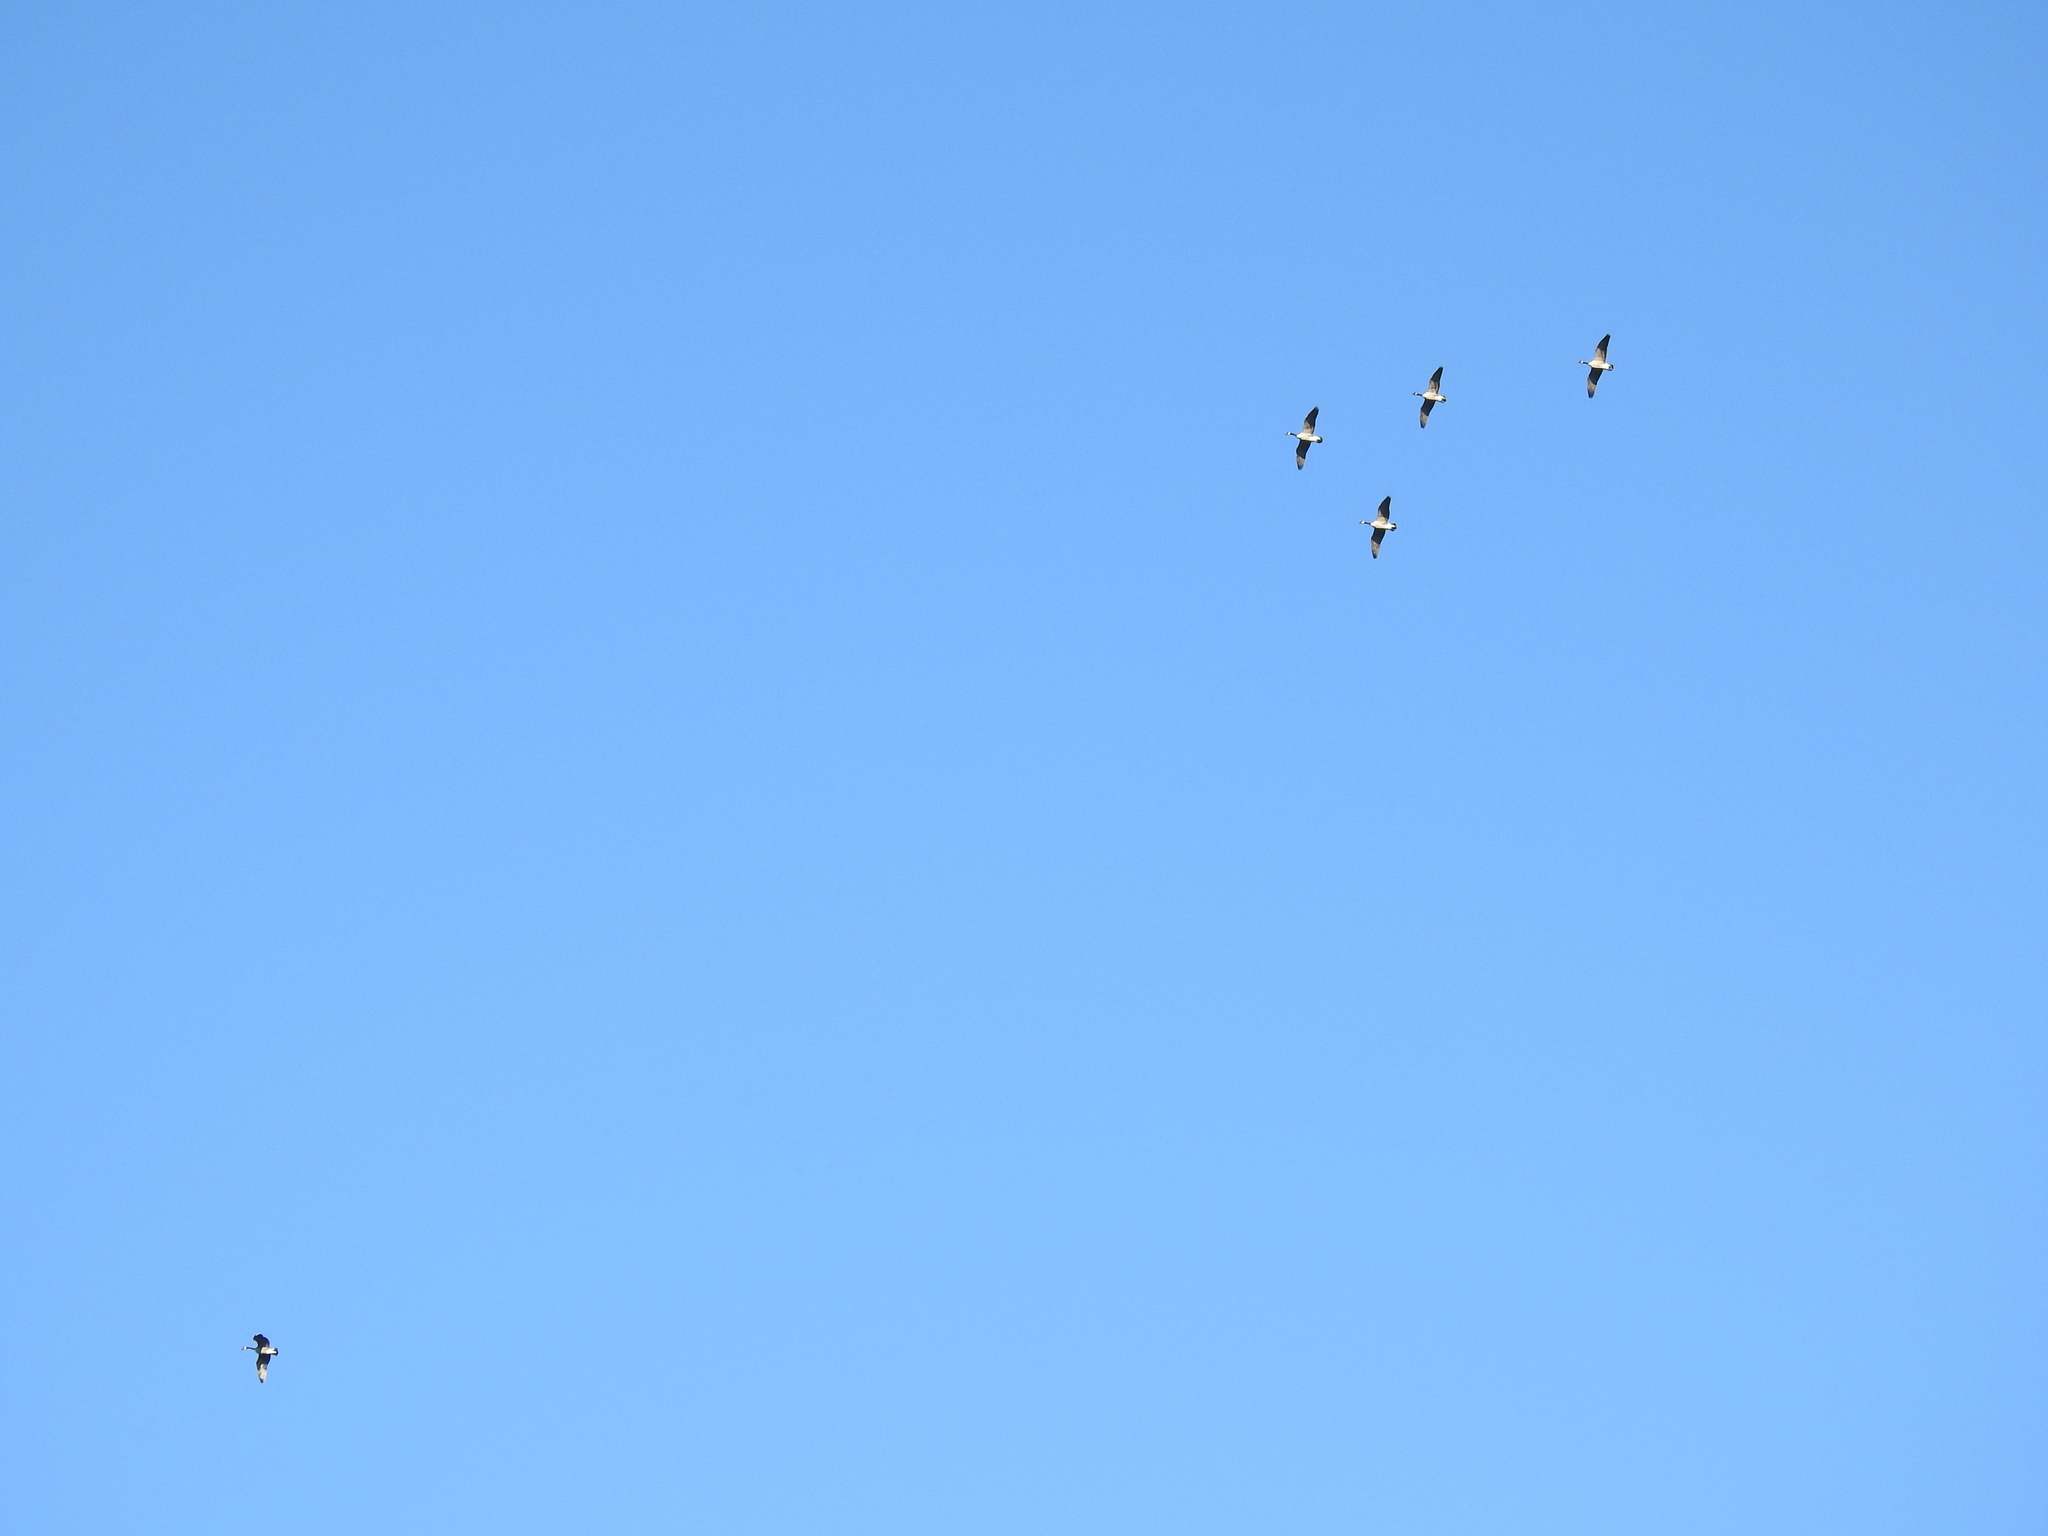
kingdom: Animalia
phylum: Chordata
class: Aves
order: Anseriformes
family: Anatidae
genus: Branta
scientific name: Branta canadensis
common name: Canada goose
